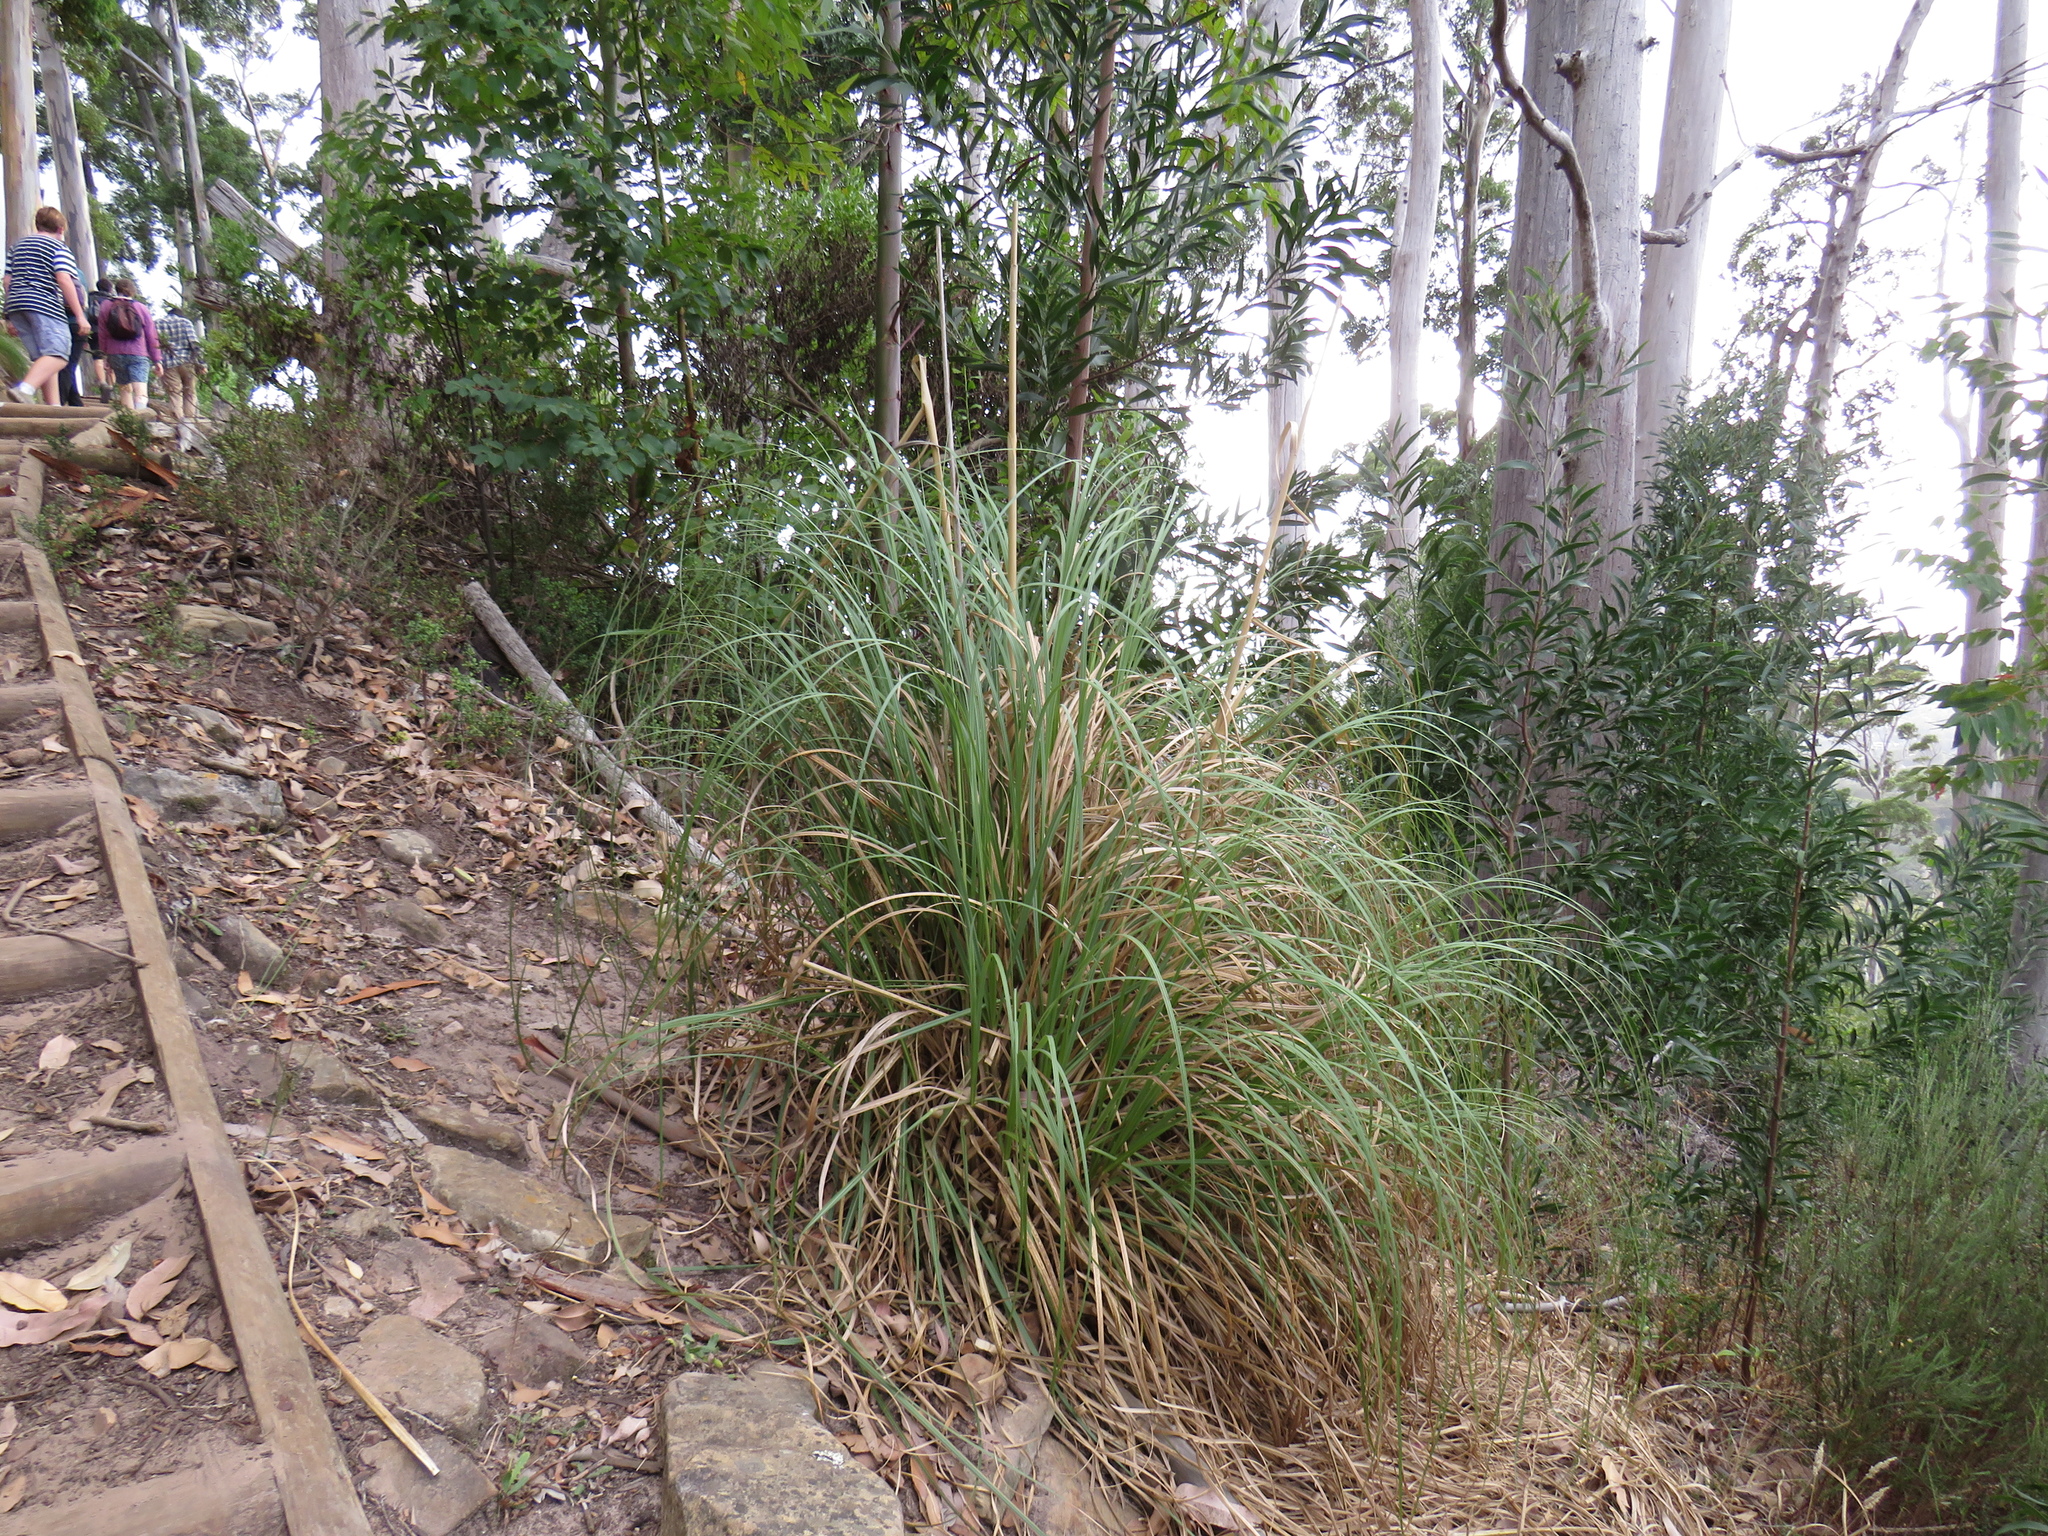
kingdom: Plantae
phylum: Tracheophyta
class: Liliopsida
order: Poales
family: Poaceae
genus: Cortaderia
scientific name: Cortaderia selloana
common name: Uruguayan pampas grass
